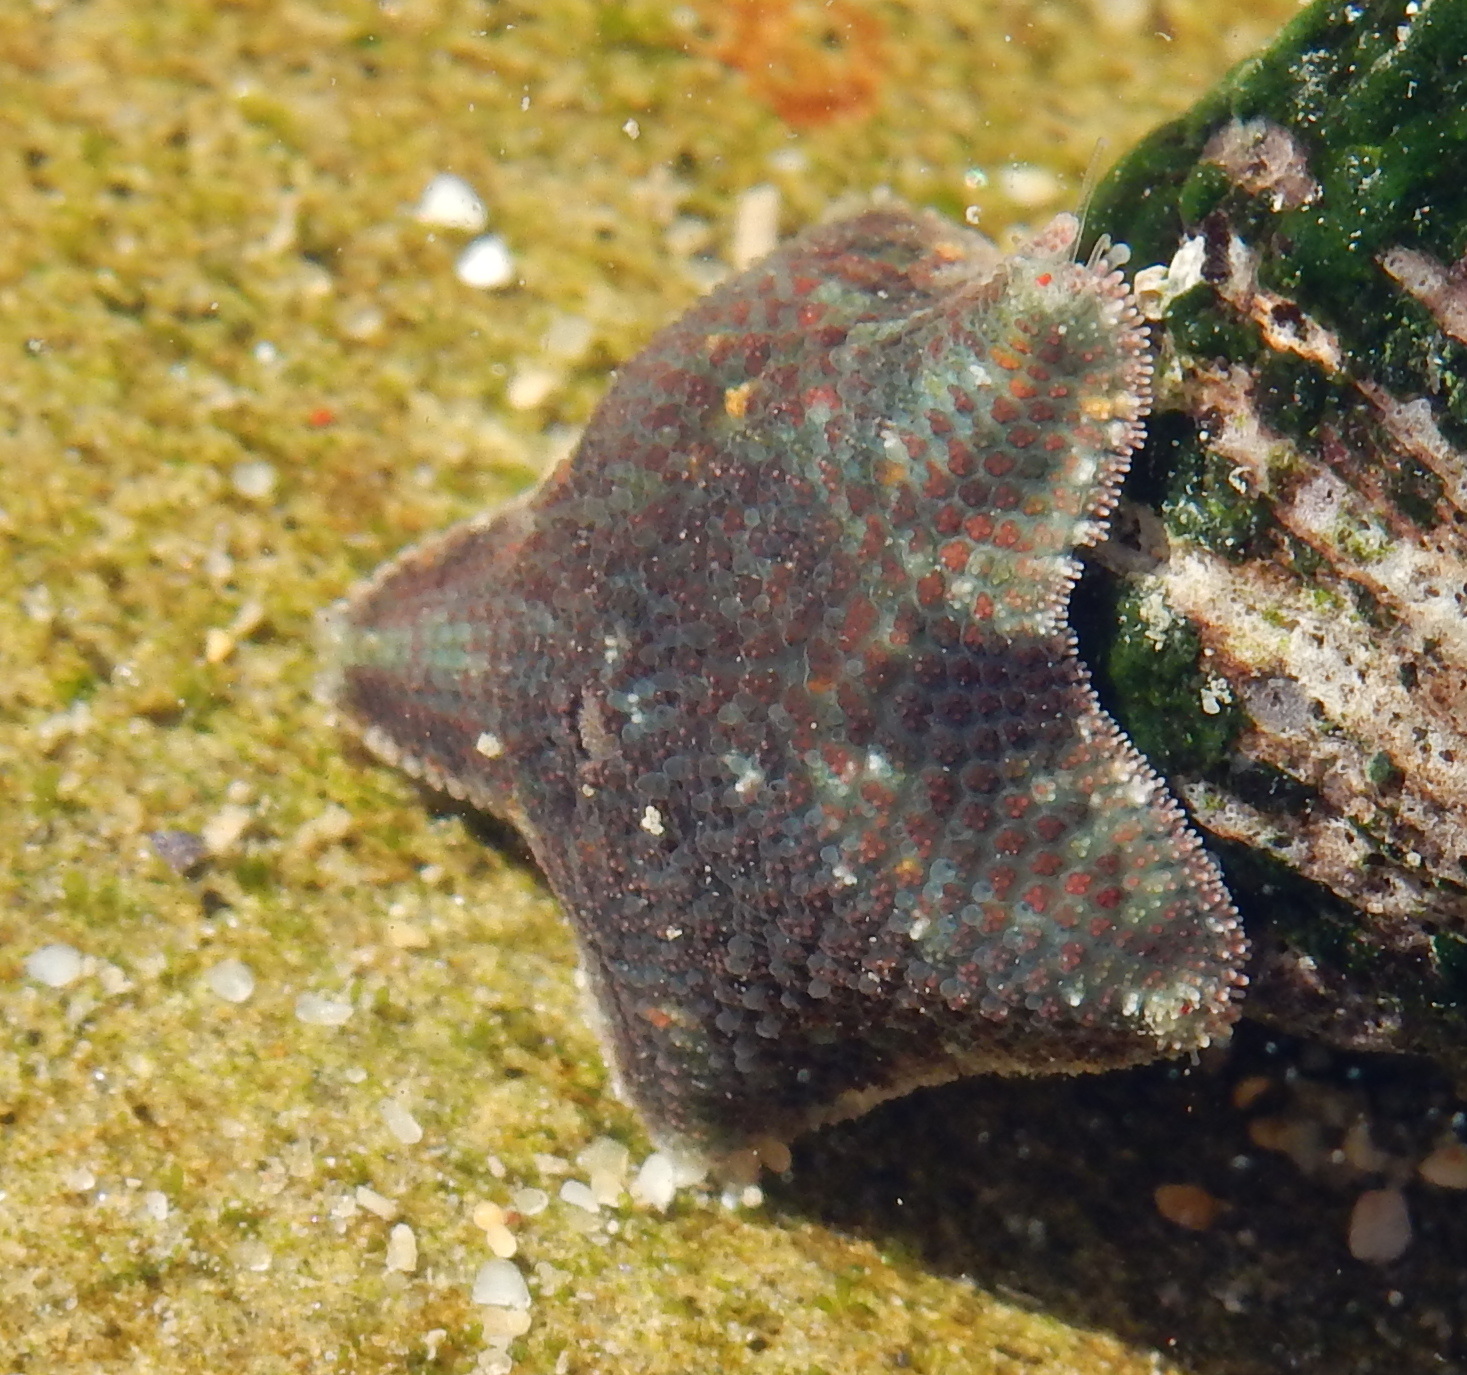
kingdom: Animalia
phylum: Echinodermata
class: Asteroidea
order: Valvatida
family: Asterinidae
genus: Parvulastra
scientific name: Parvulastra exigua
